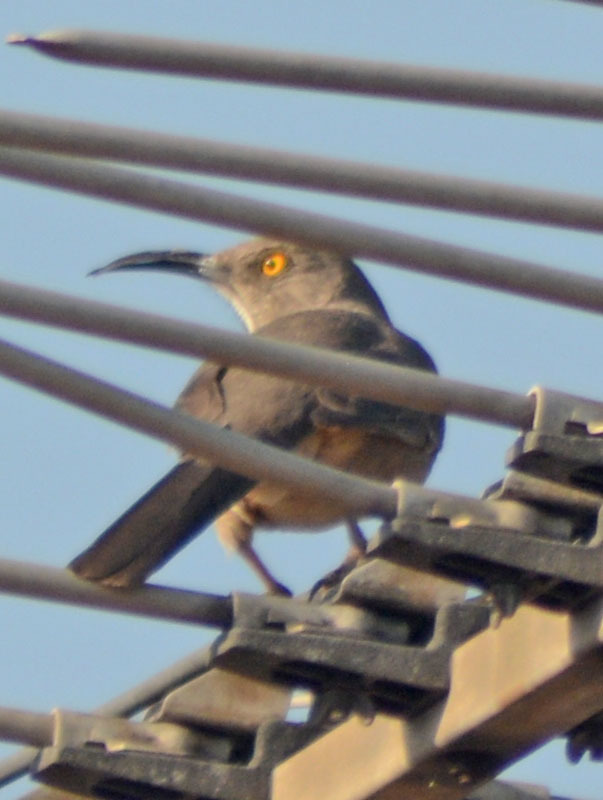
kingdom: Animalia
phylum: Chordata
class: Aves
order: Passeriformes
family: Mimidae
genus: Toxostoma
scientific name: Toxostoma curvirostre
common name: Curve-billed thrasher
